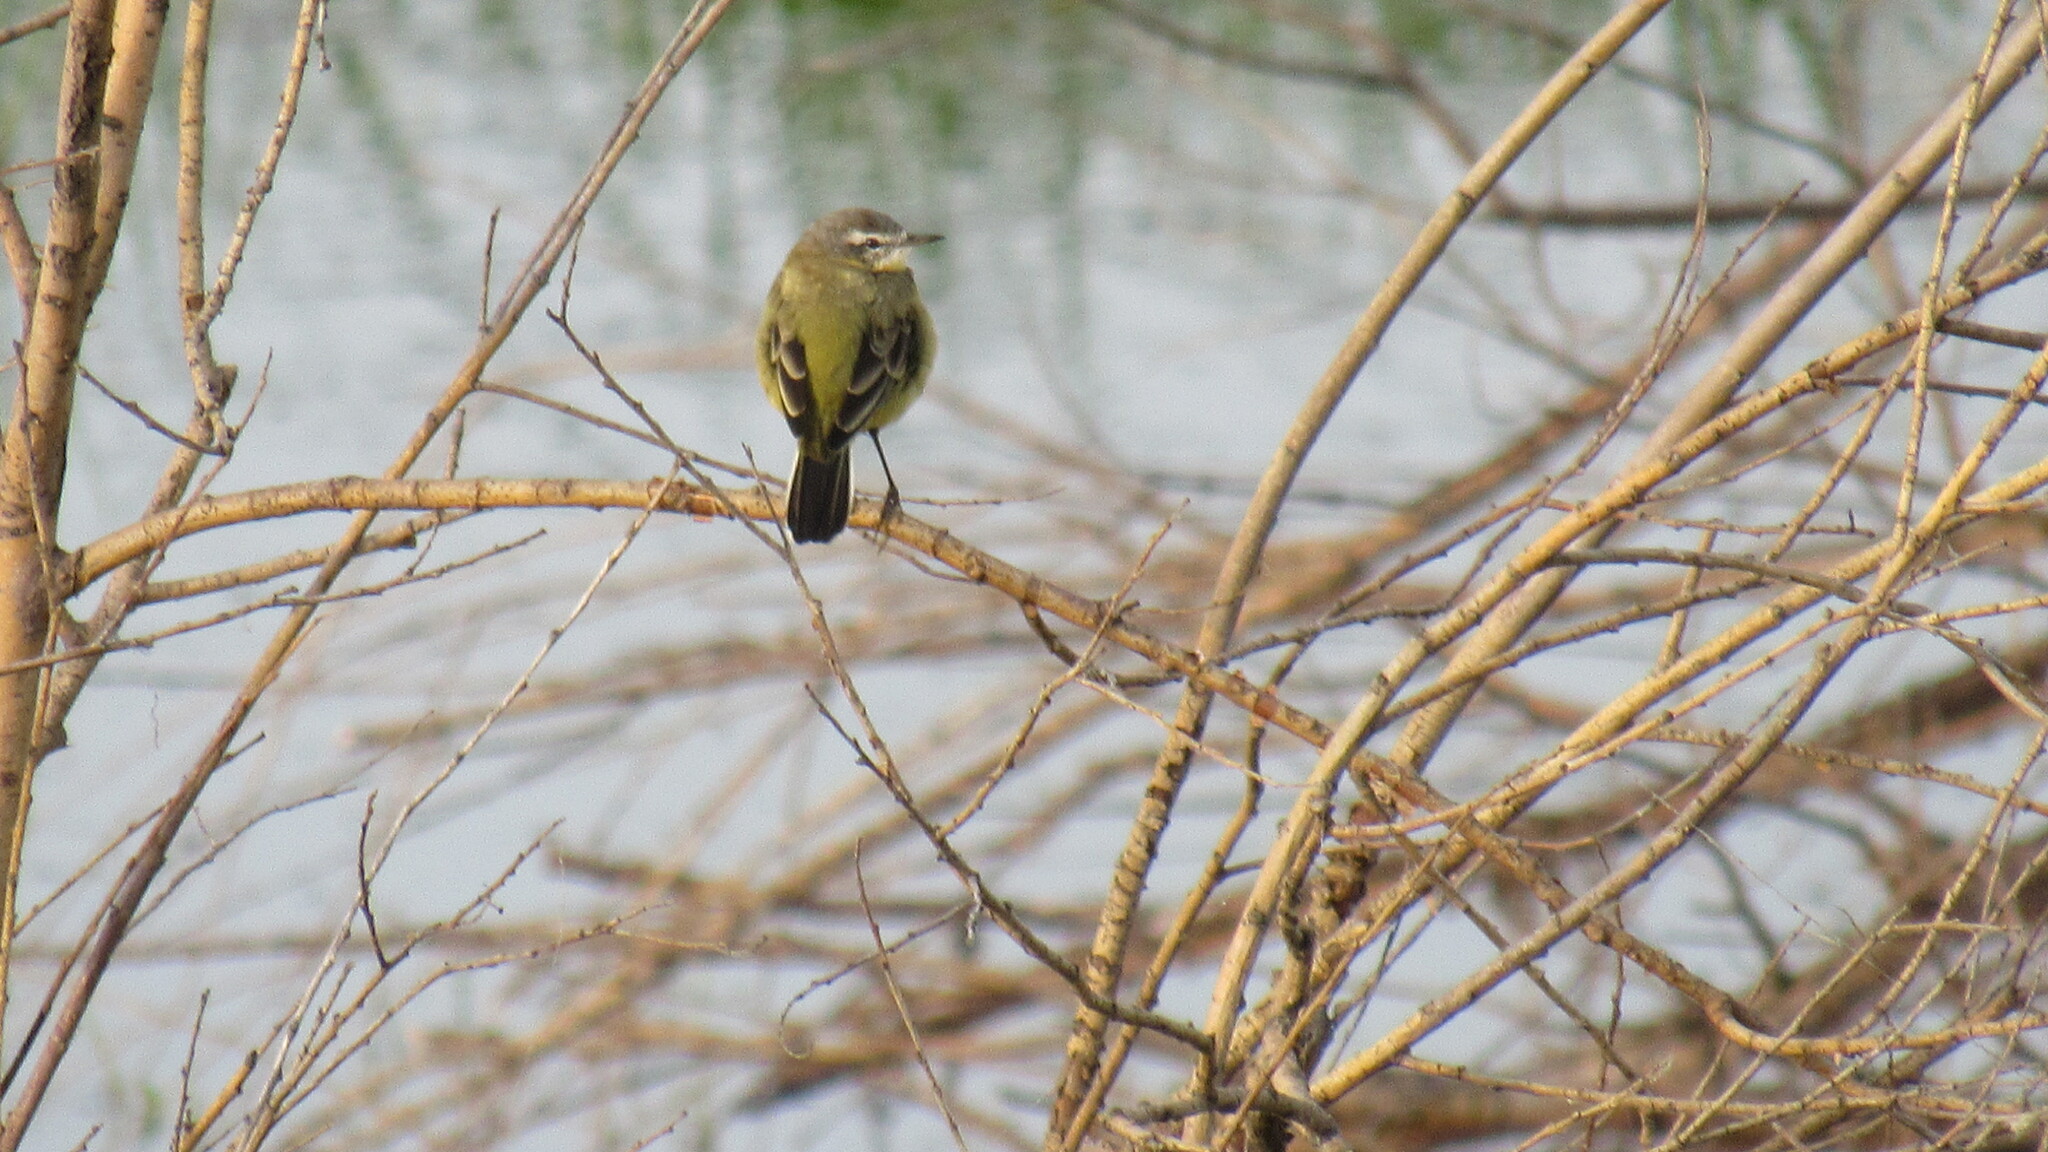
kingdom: Animalia
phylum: Chordata
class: Aves
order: Passeriformes
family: Motacillidae
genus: Motacilla
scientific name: Motacilla flava
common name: Western yellow wagtail
